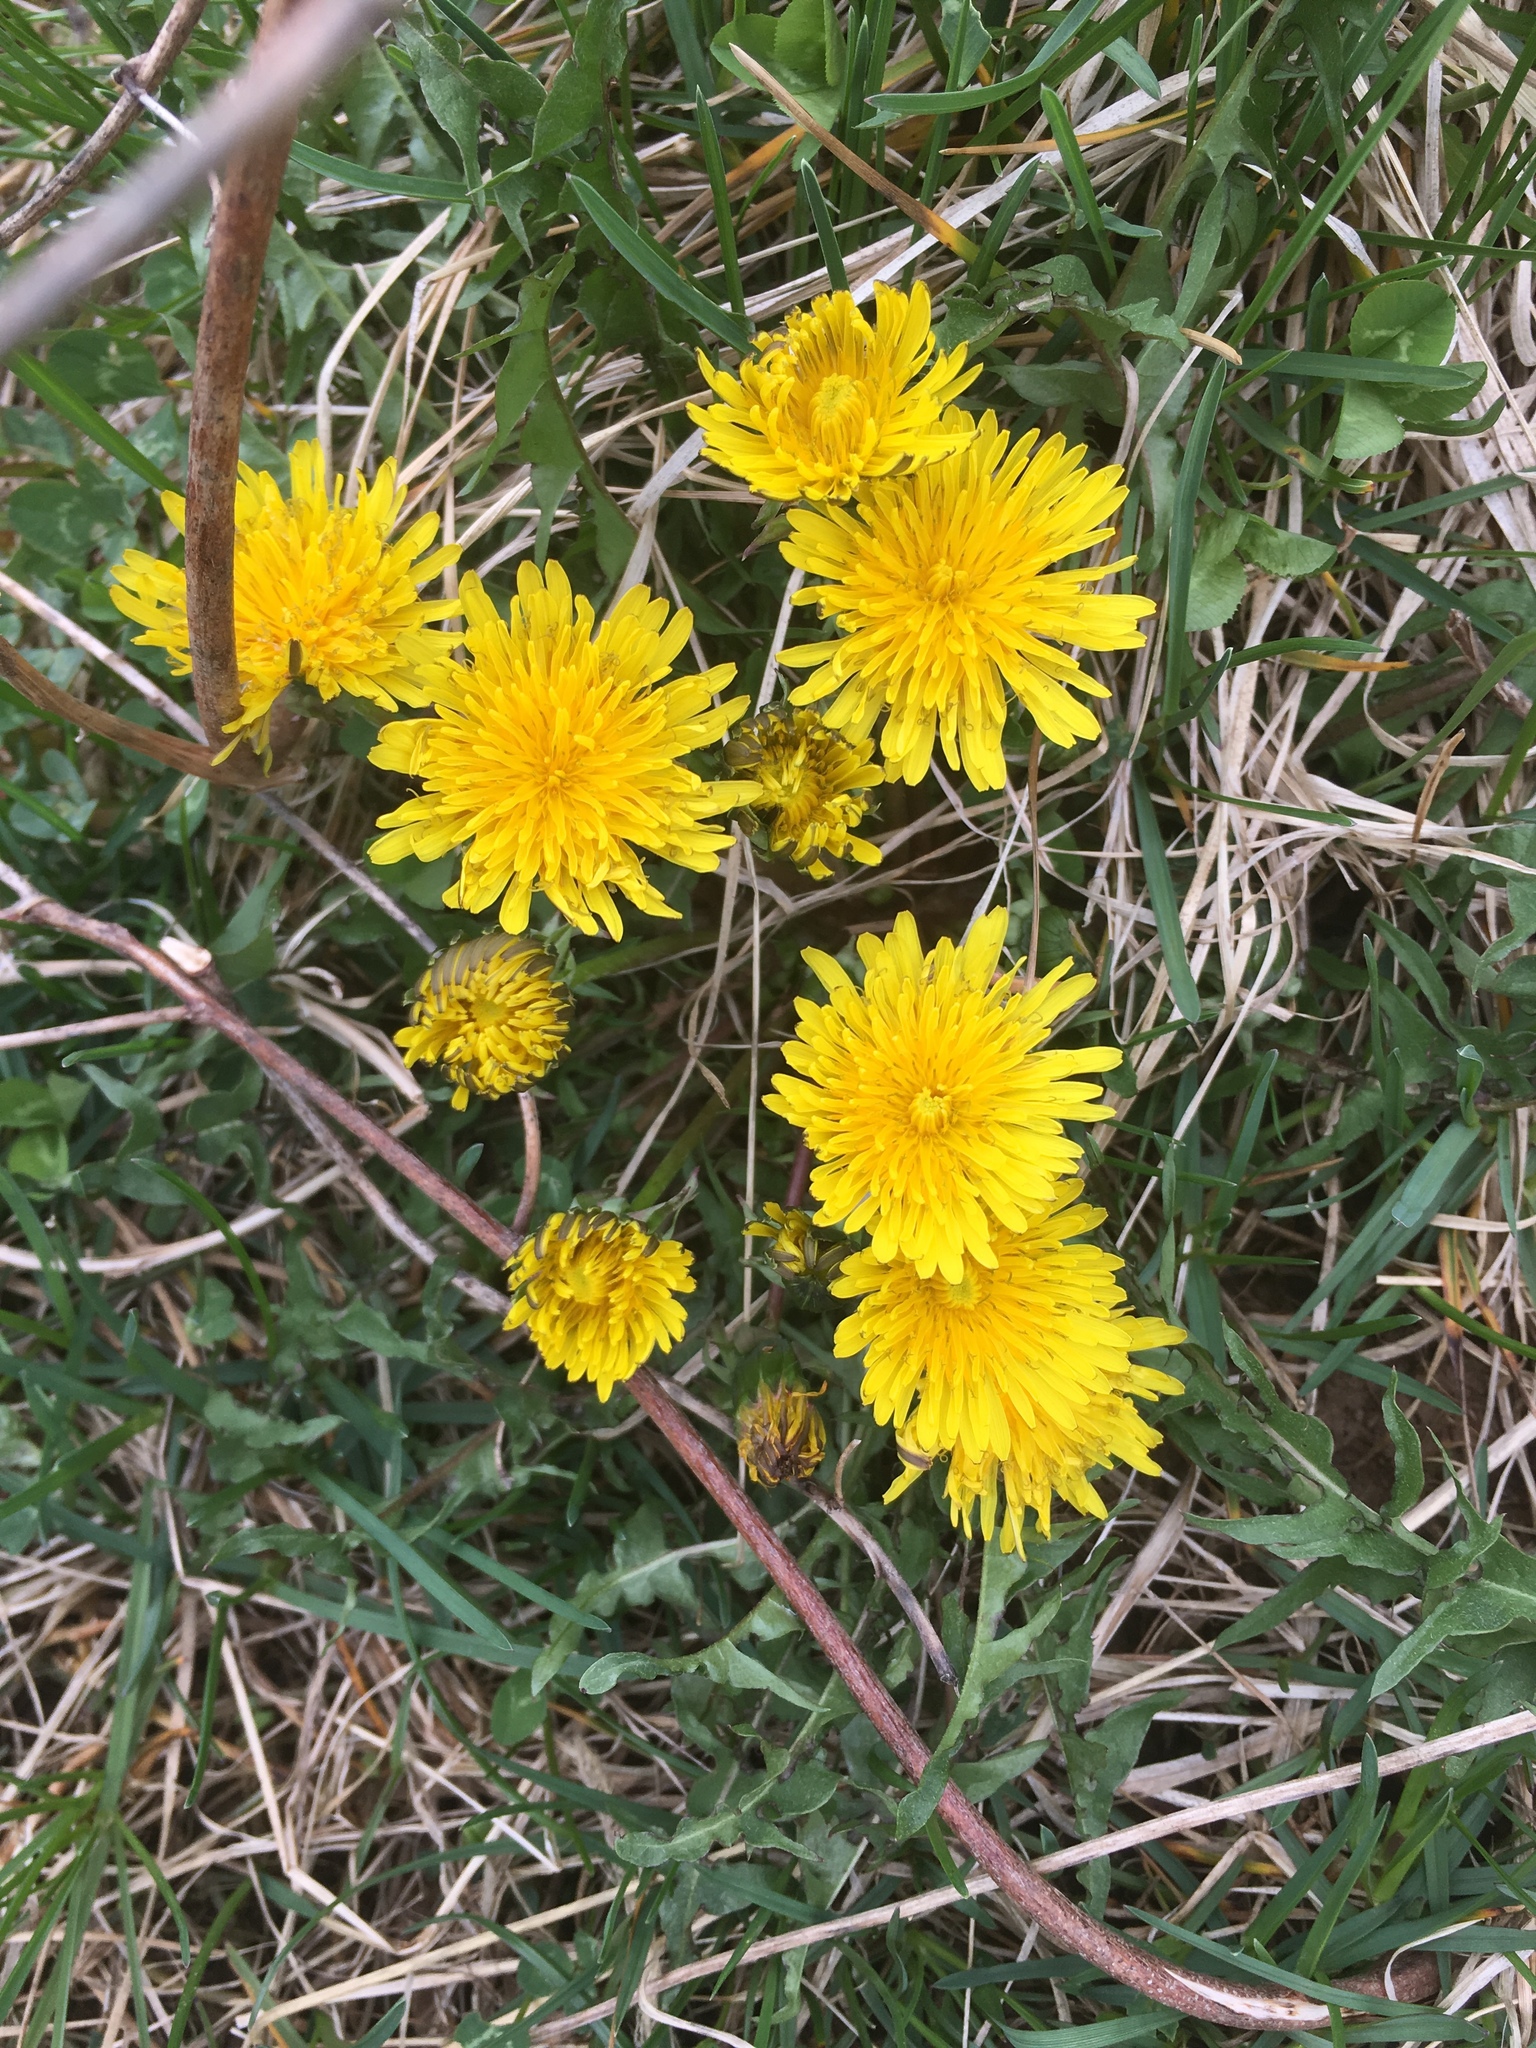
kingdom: Plantae
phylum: Tracheophyta
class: Magnoliopsida
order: Asterales
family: Asteraceae
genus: Taraxacum
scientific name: Taraxacum officinale
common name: Common dandelion
